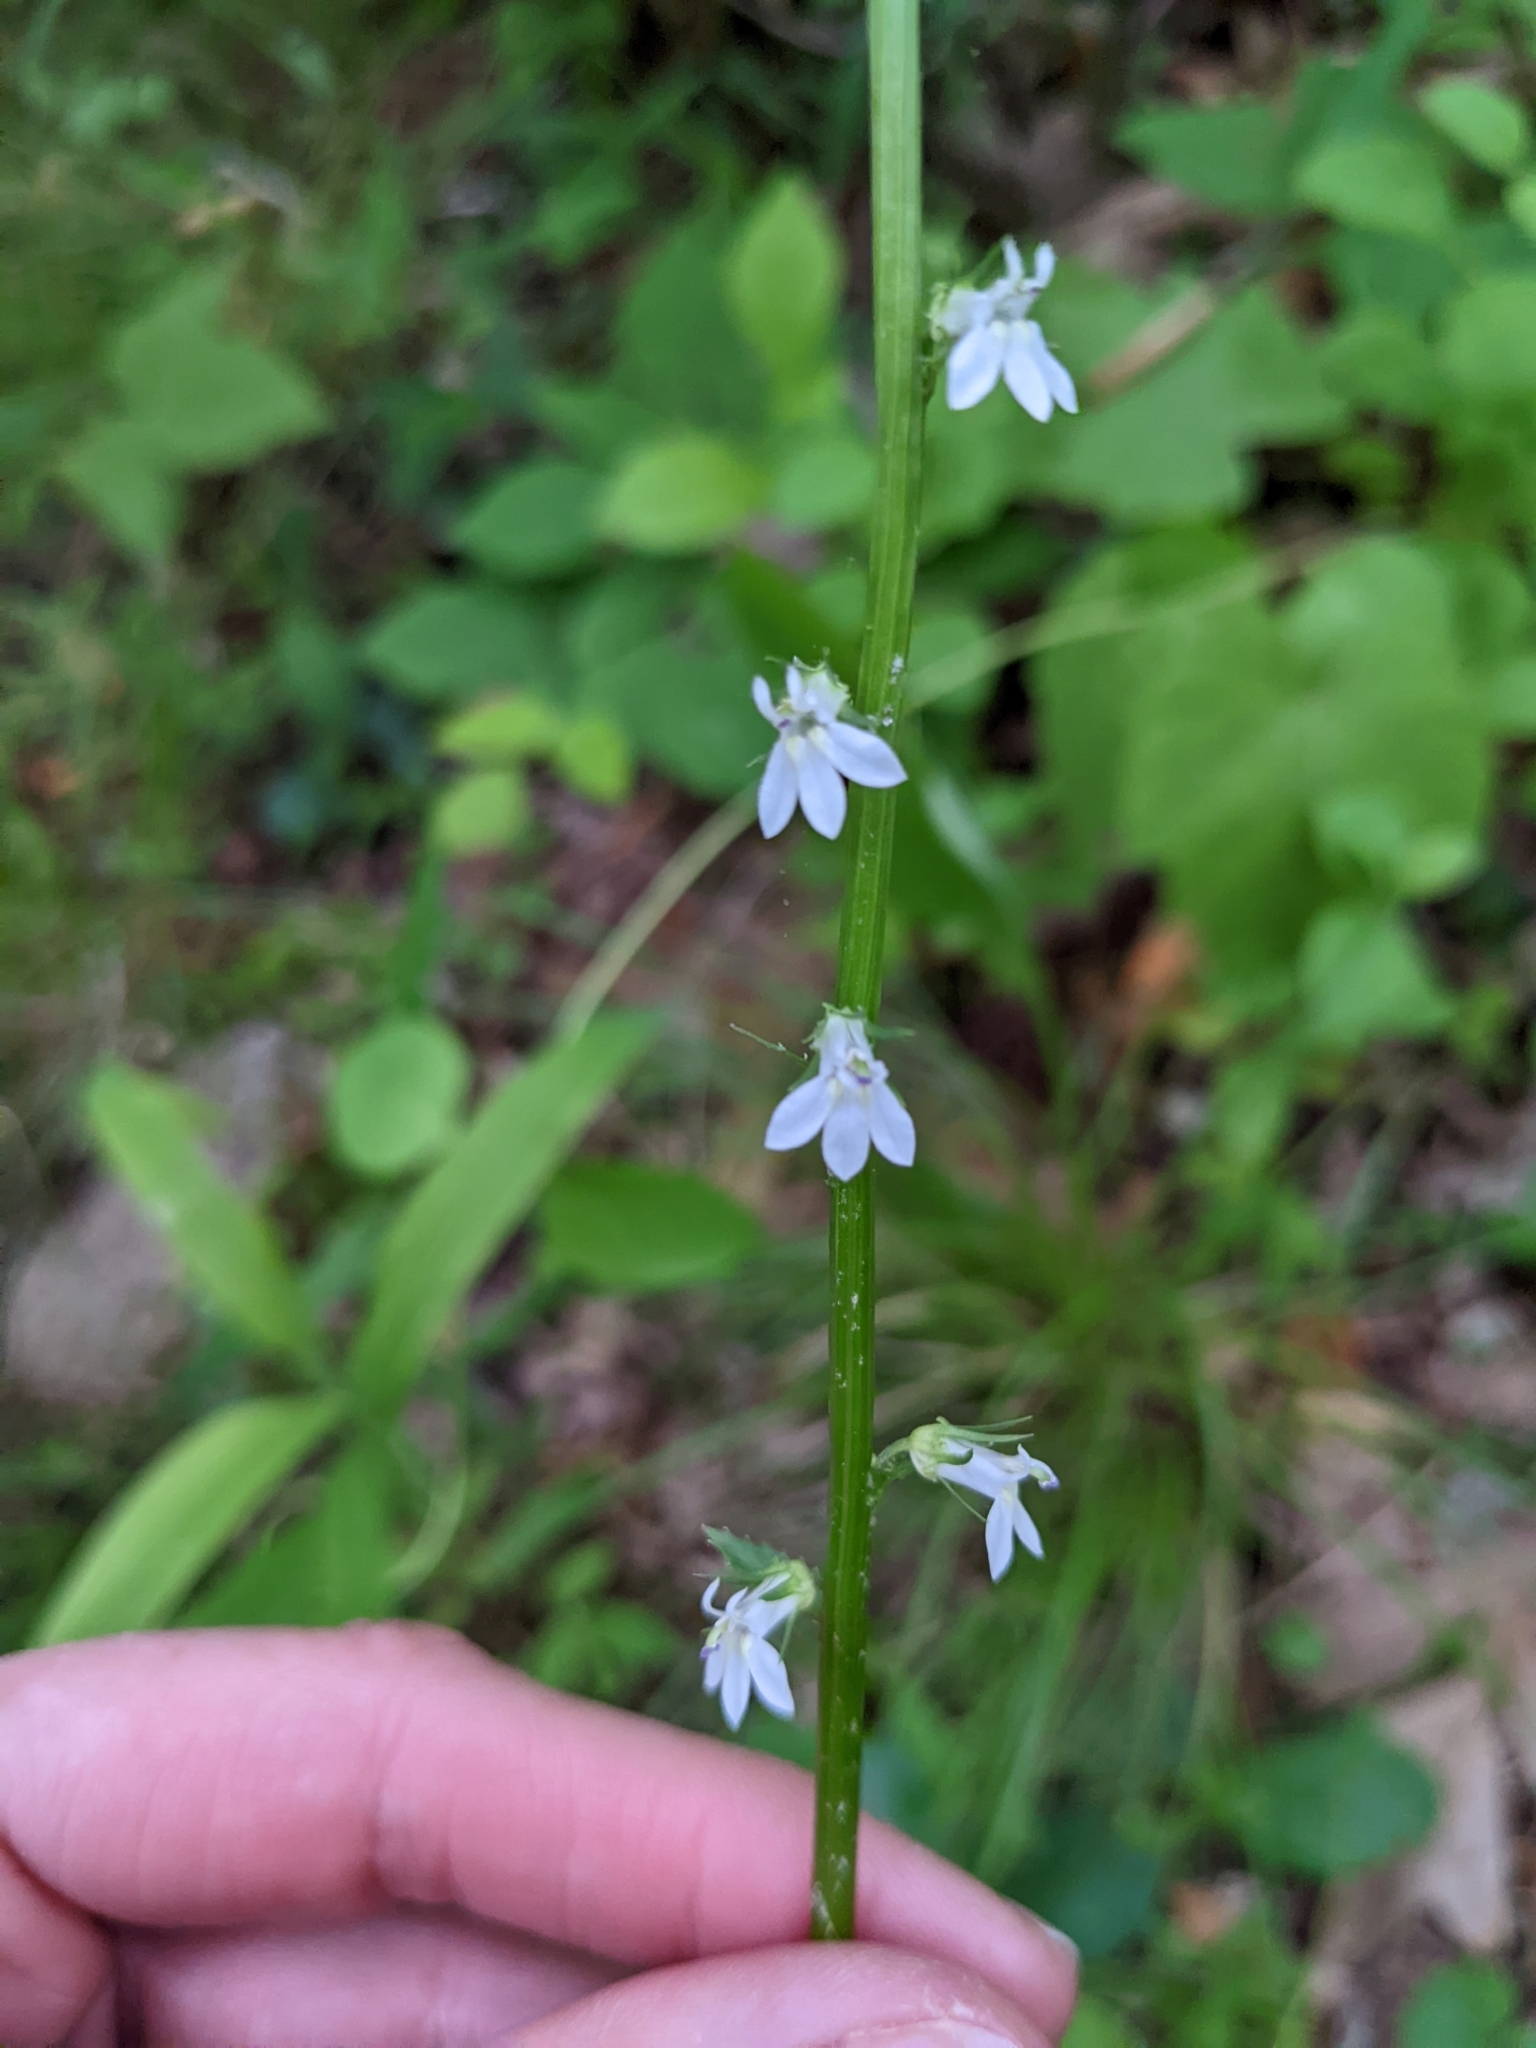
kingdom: Plantae
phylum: Tracheophyta
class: Magnoliopsida
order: Asterales
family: Campanulaceae
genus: Lobelia
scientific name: Lobelia spicata
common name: Pale-spike lobelia
